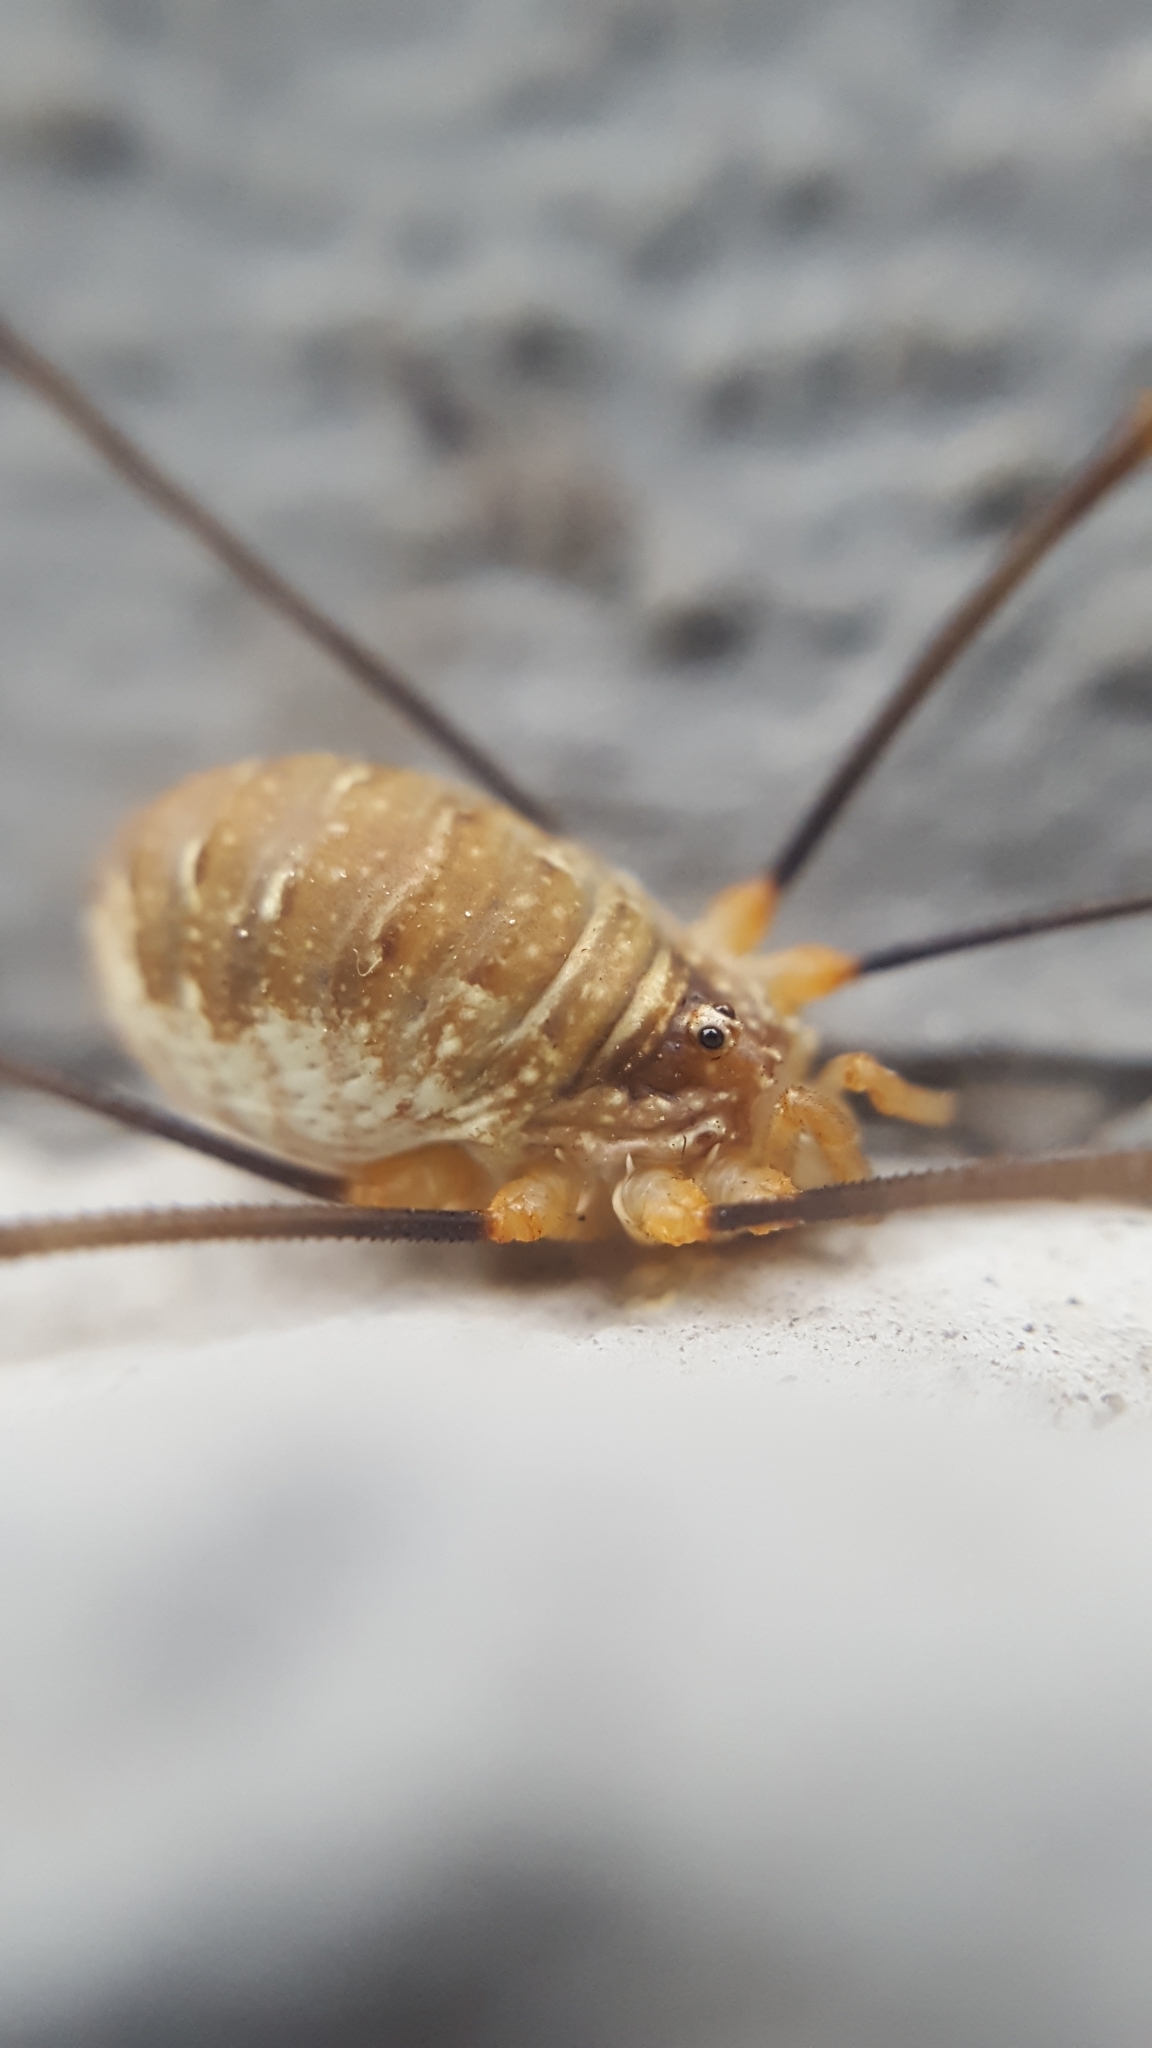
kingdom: Animalia
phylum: Arthropoda
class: Arachnida
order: Opiliones
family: Phalangiidae
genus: Opilio
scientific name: Opilio canestrinii
